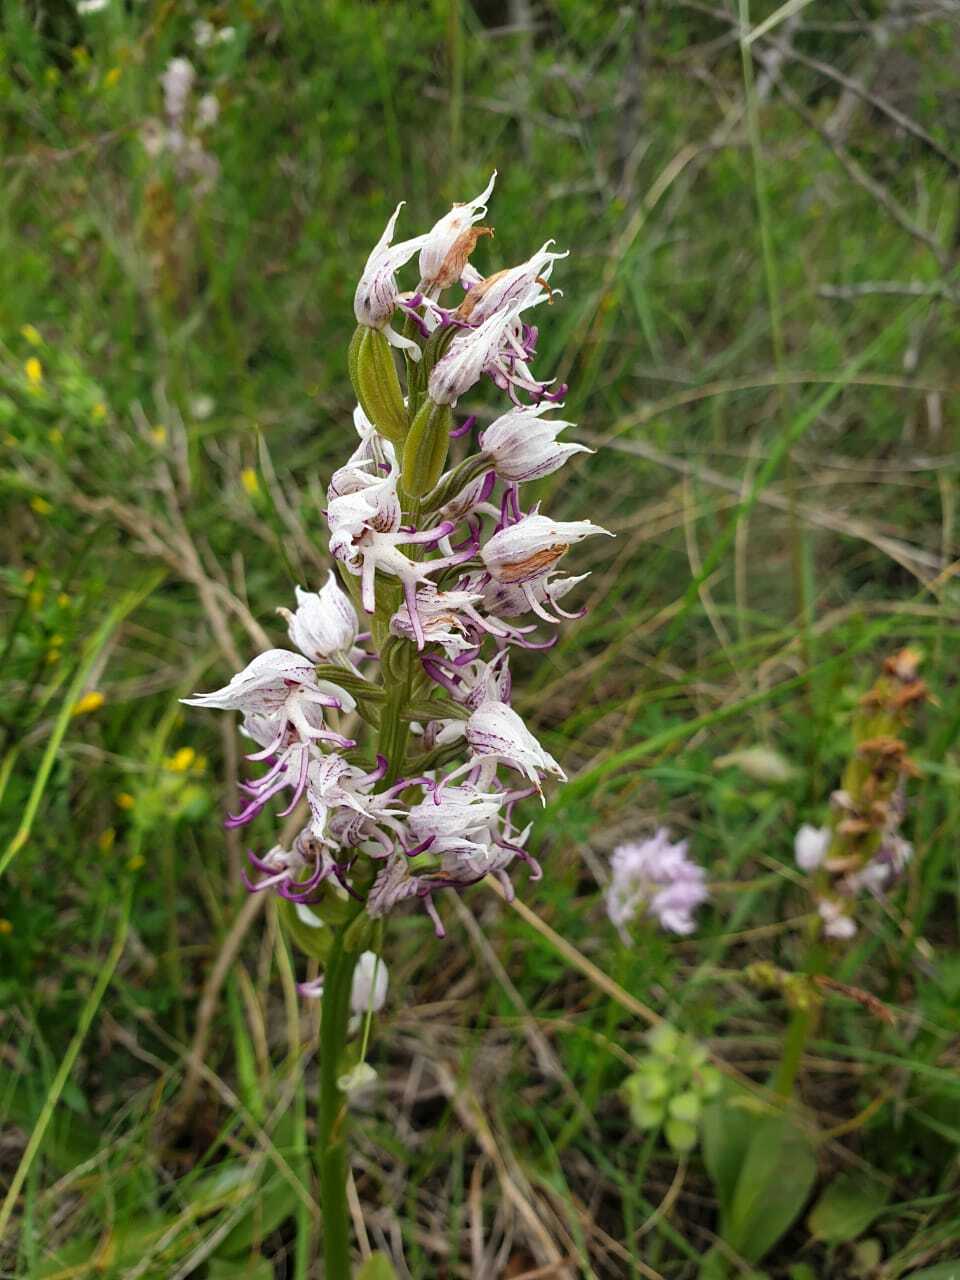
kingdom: Plantae
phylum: Tracheophyta
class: Liliopsida
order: Asparagales
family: Orchidaceae
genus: Orchis
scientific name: Orchis simia
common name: Monkey orchid
